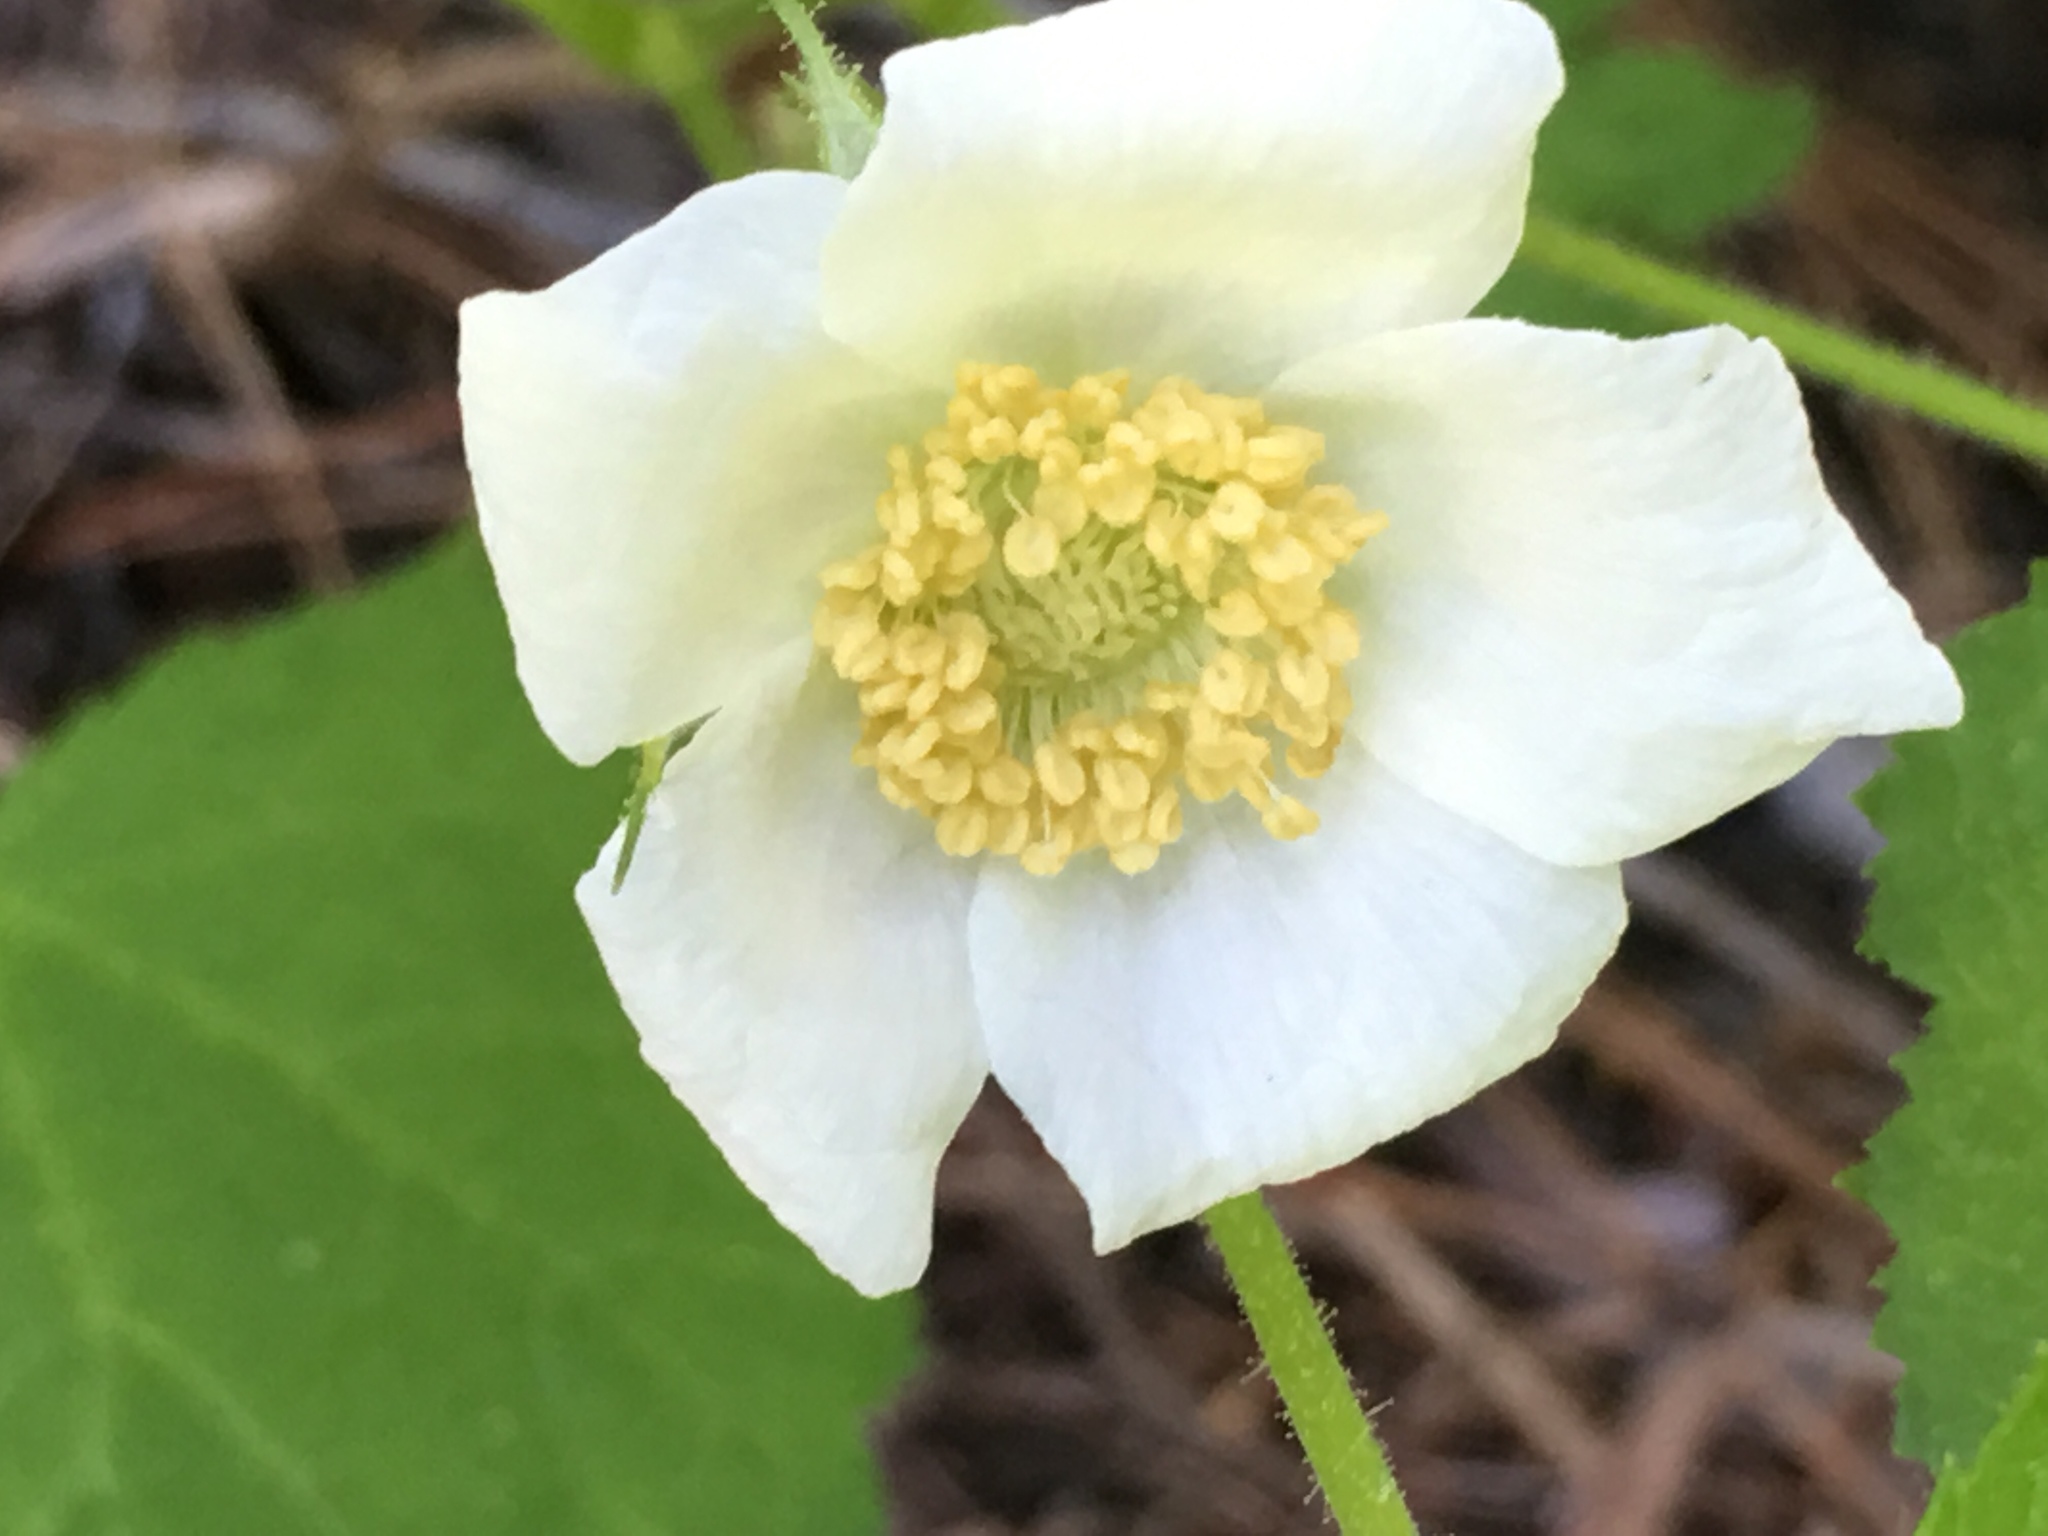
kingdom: Plantae
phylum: Tracheophyta
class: Magnoliopsida
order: Rosales
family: Rosaceae
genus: Rubus
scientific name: Rubus parviflorus
